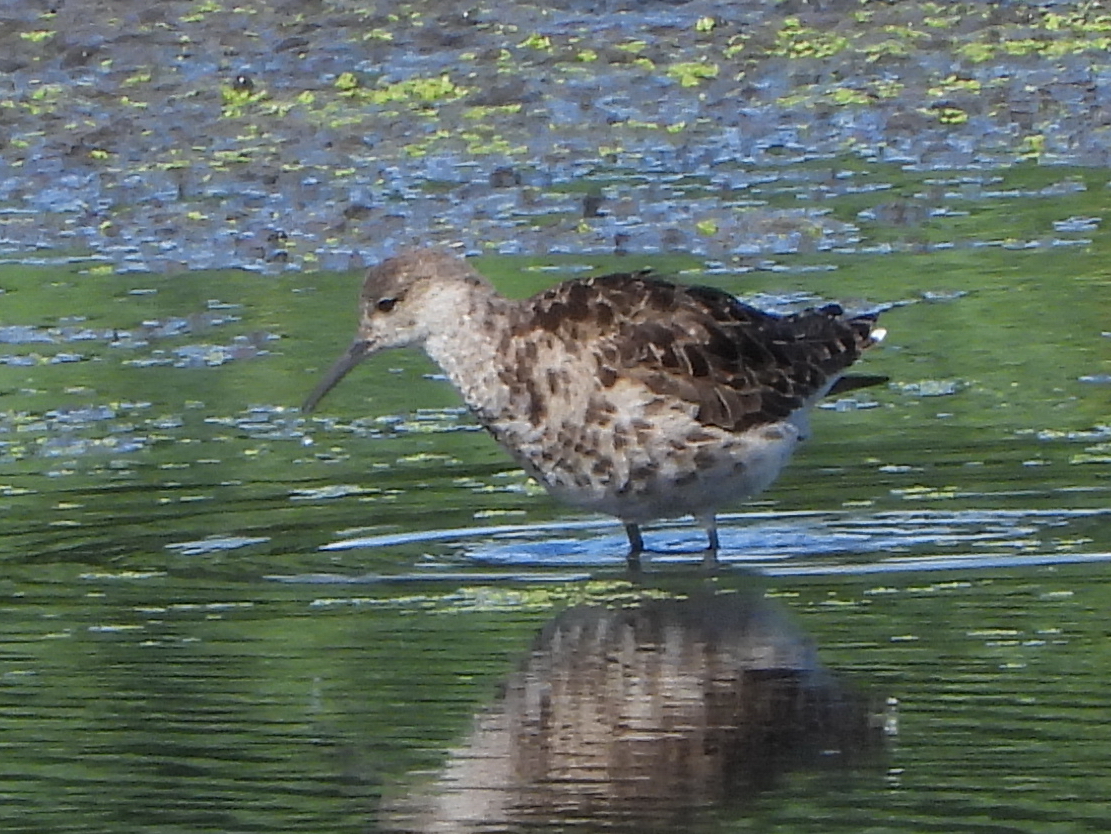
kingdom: Animalia
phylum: Chordata
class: Aves
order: Charadriiformes
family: Scolopacidae
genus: Calidris
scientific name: Calidris pugnax
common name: Ruff
